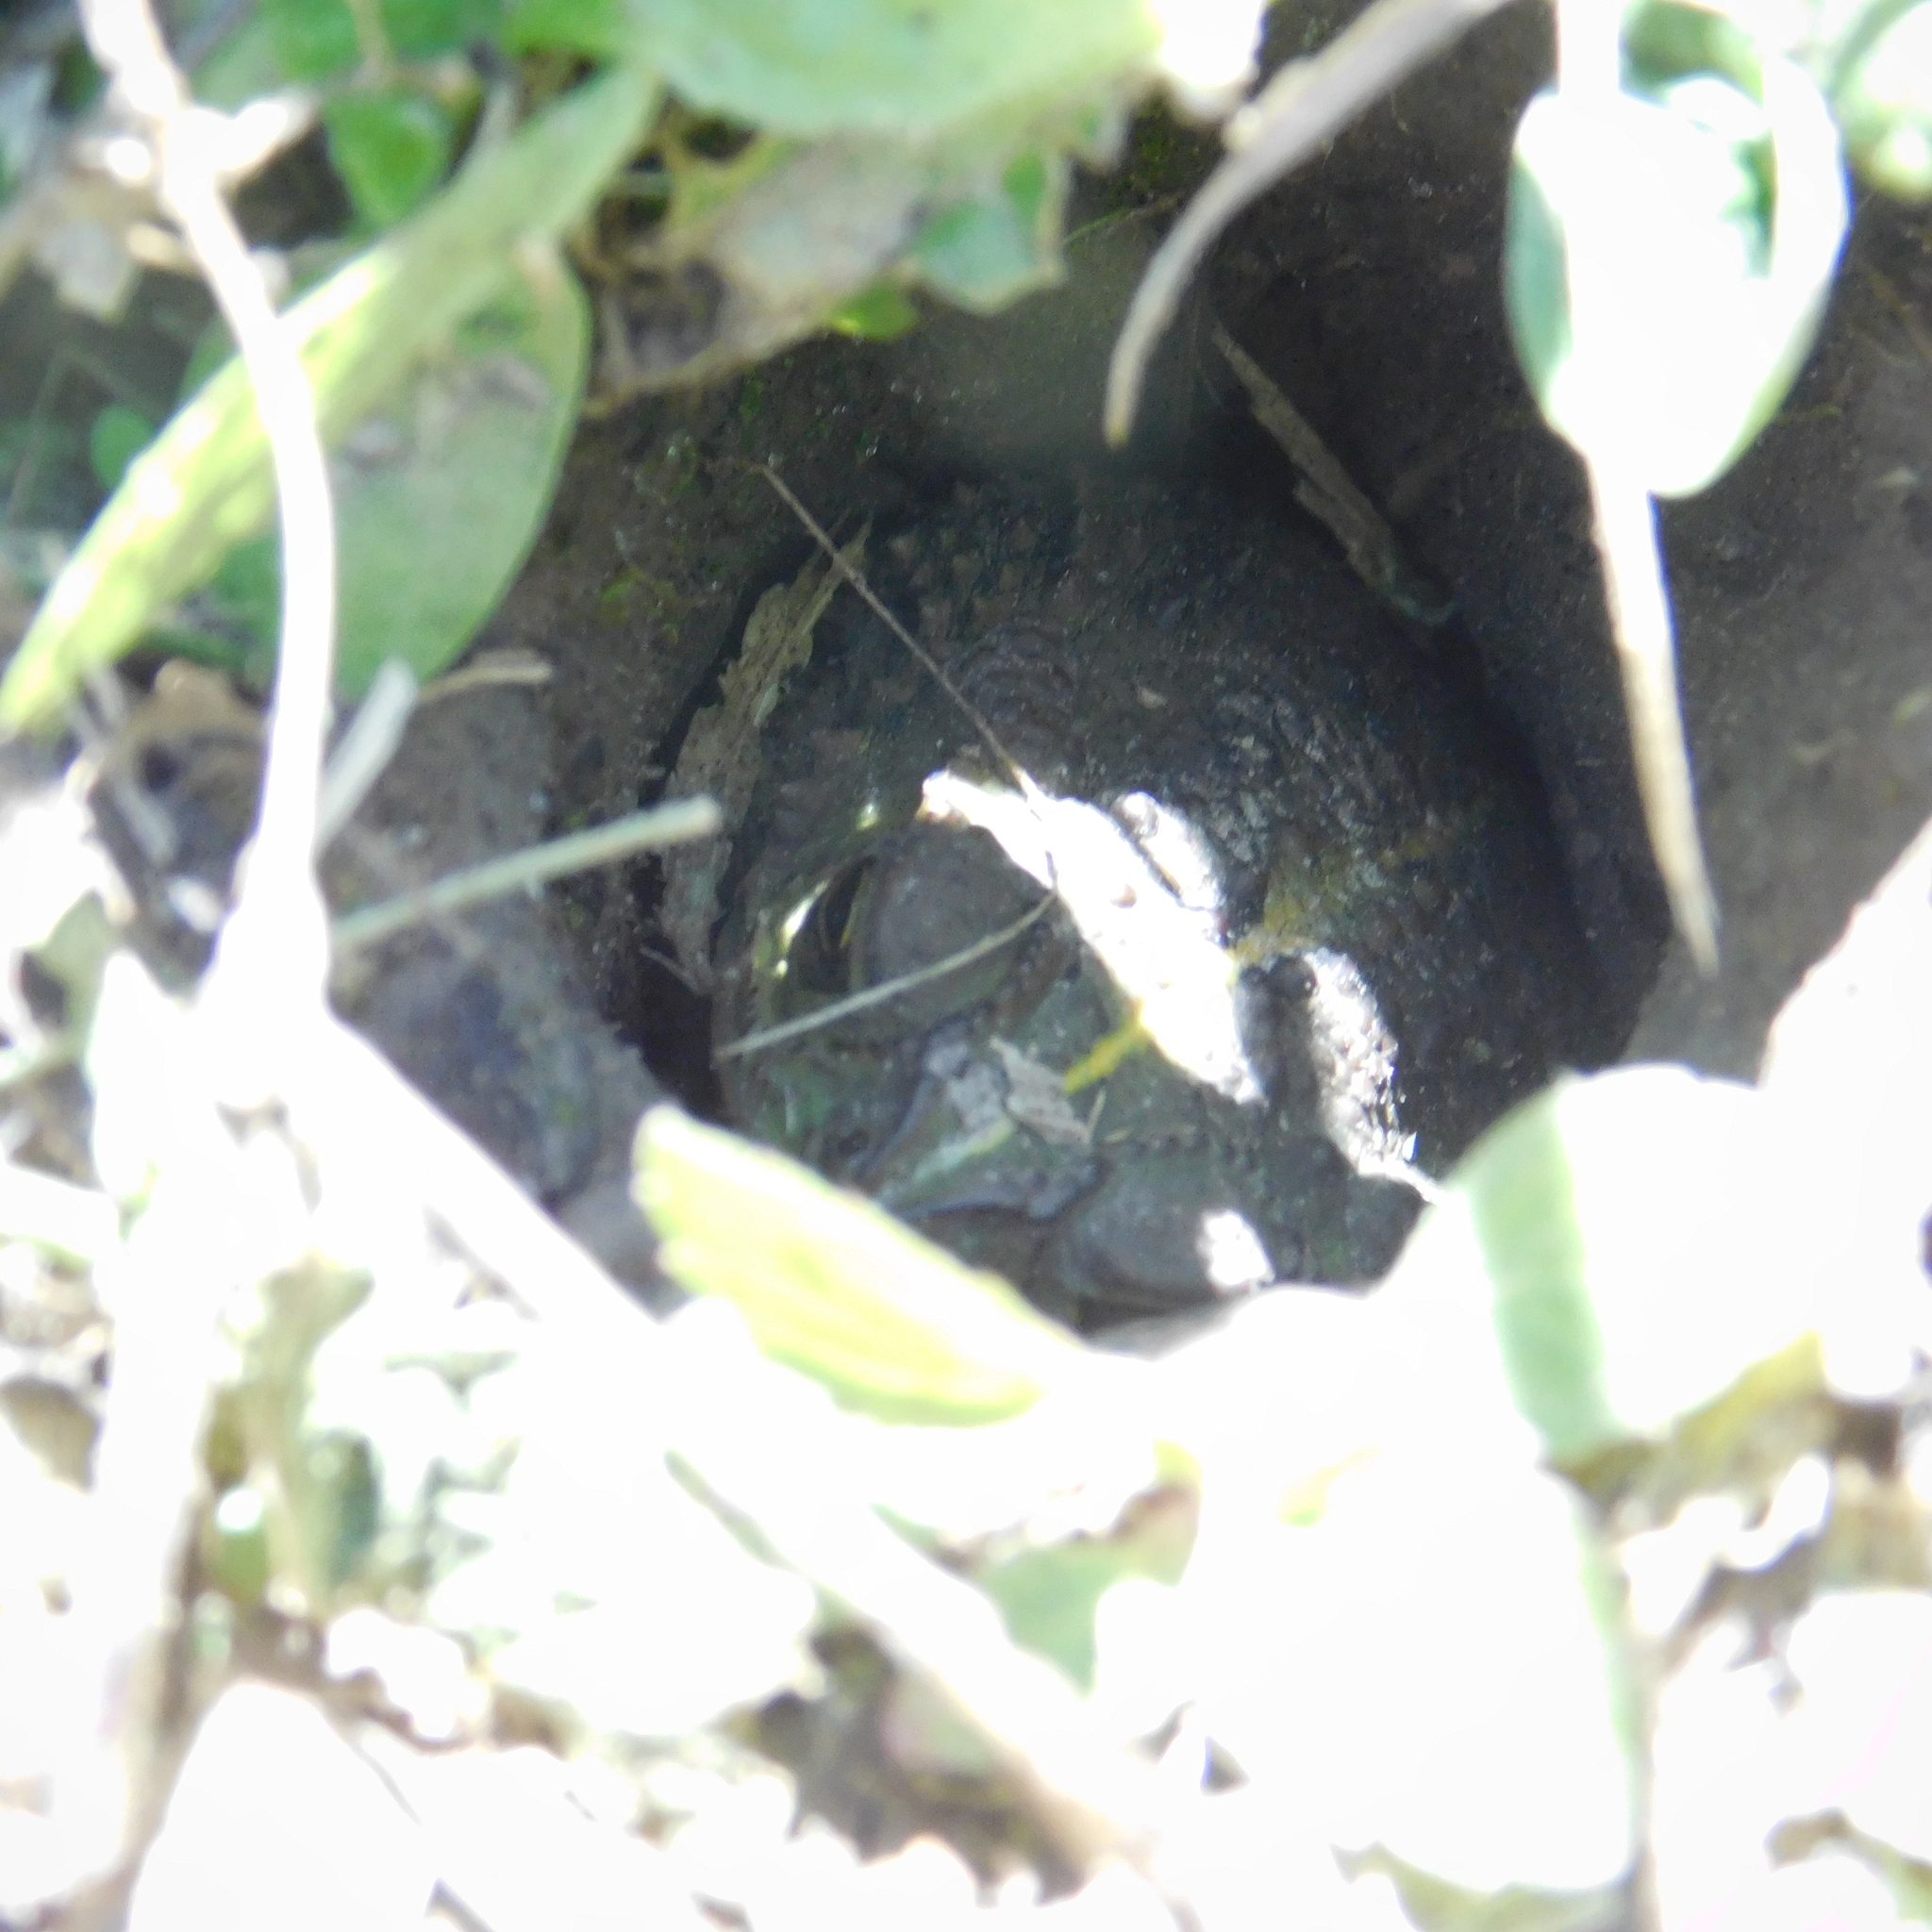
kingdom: Animalia
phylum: Chordata
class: Amphibia
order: Anura
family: Bufonidae
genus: Rhinella
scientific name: Rhinella dorbignyi
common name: D´orbigny’s toad
